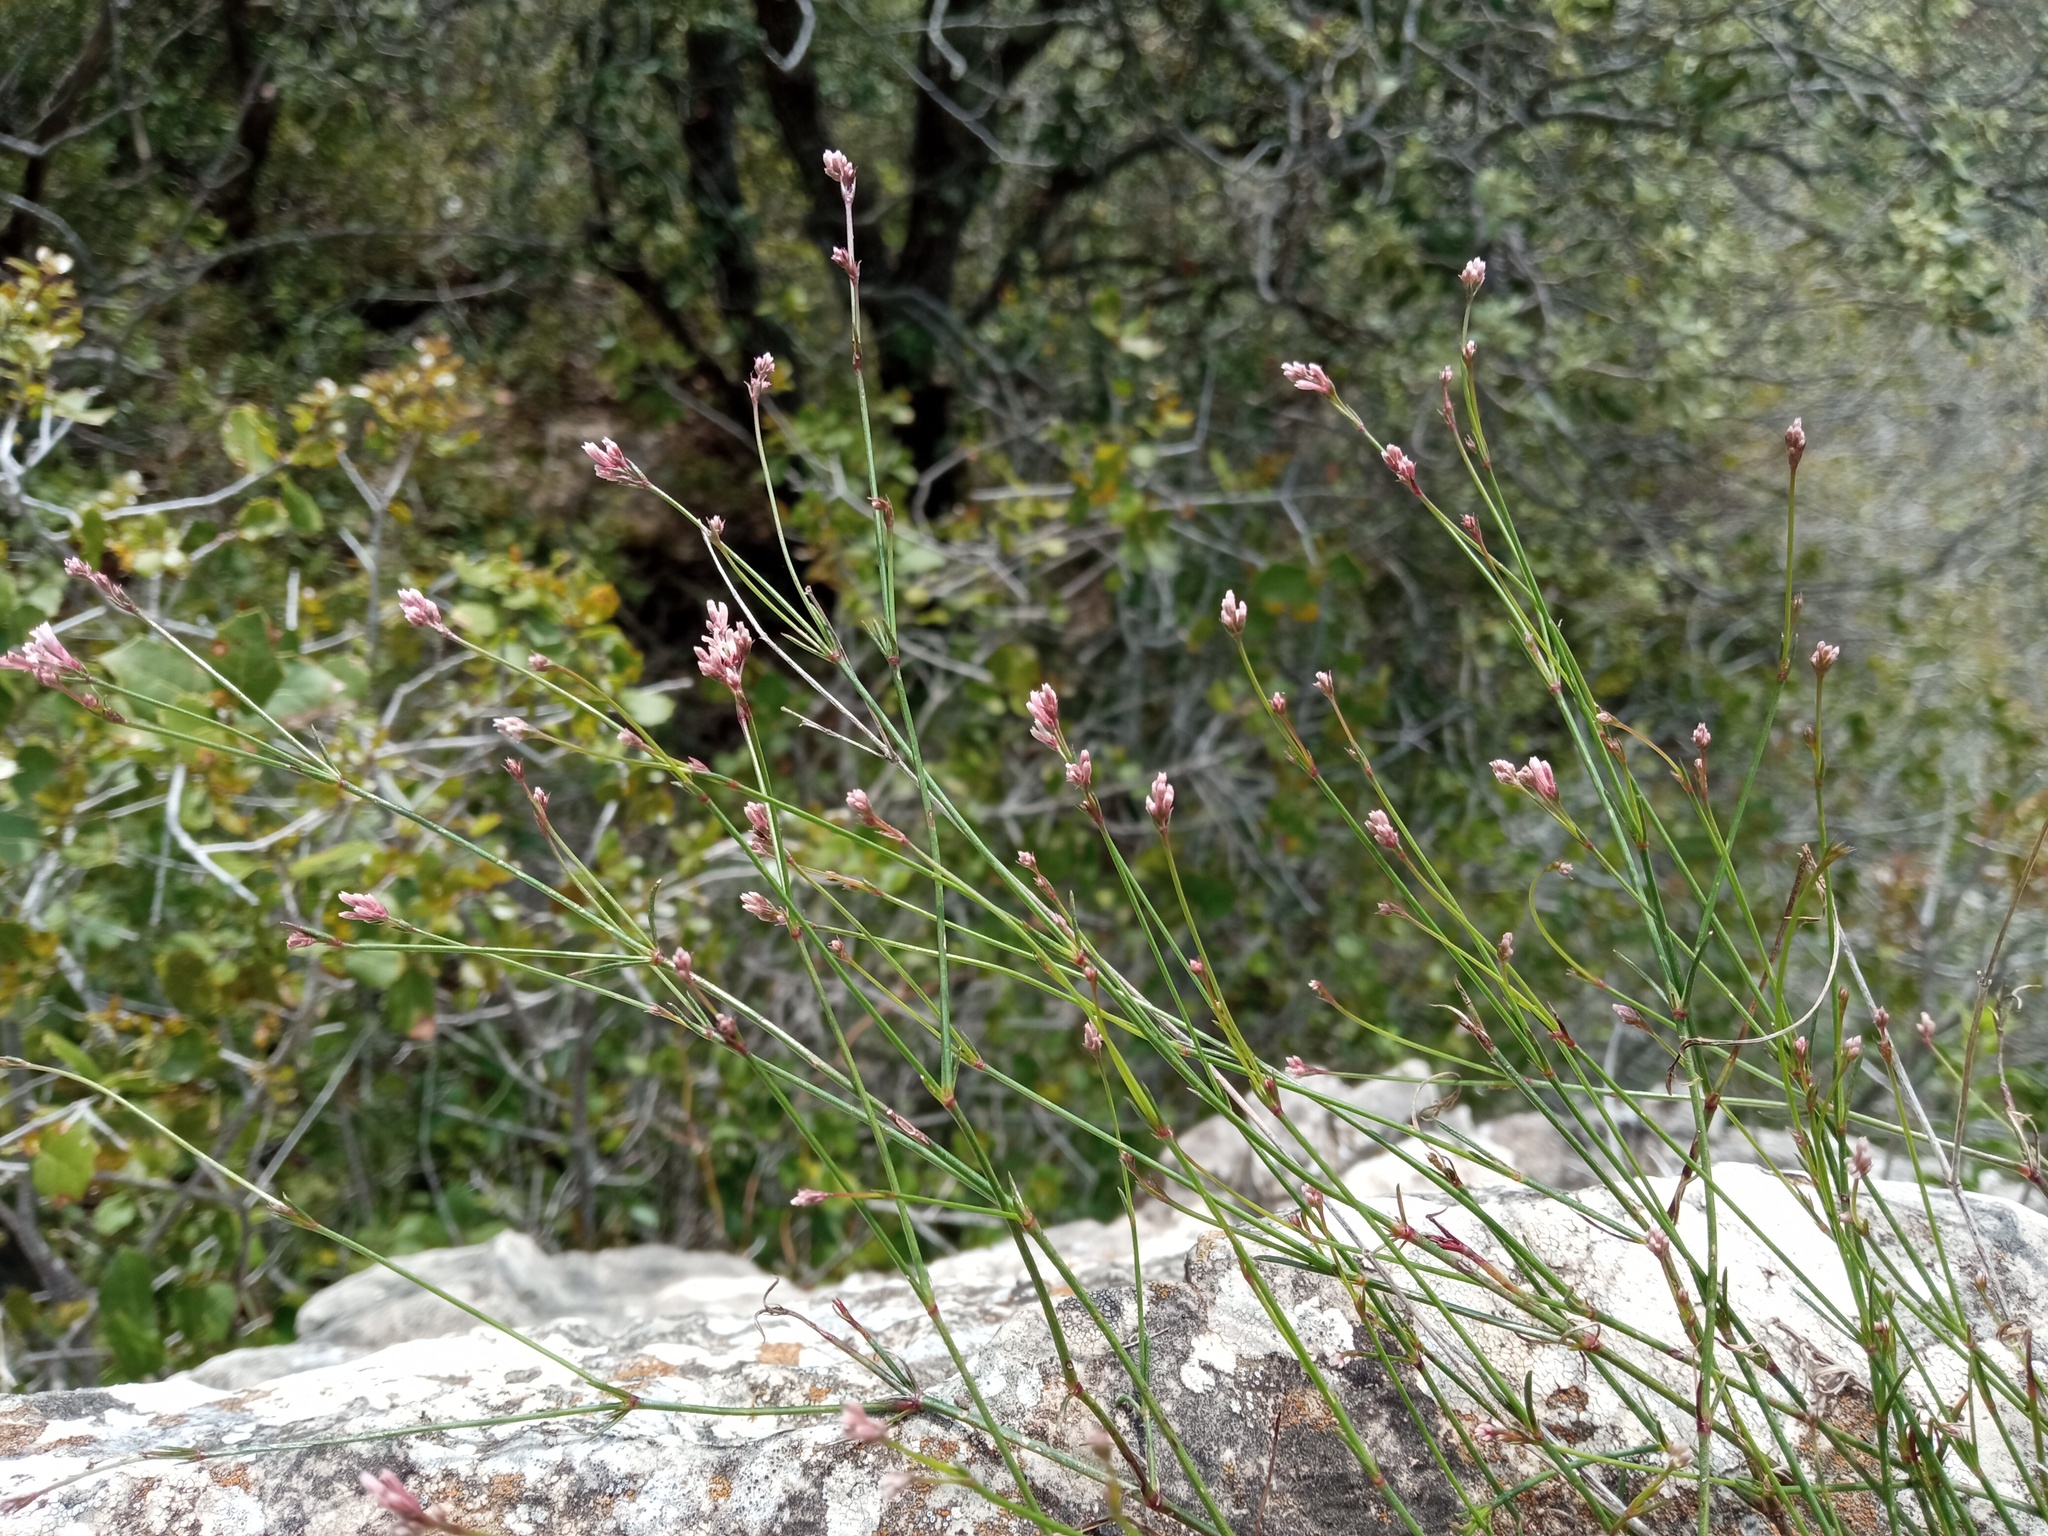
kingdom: Plantae
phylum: Tracheophyta
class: Magnoliopsida
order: Gentianales
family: Rubiaceae
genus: Cynanchica
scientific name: Cynanchica pyrenaica
